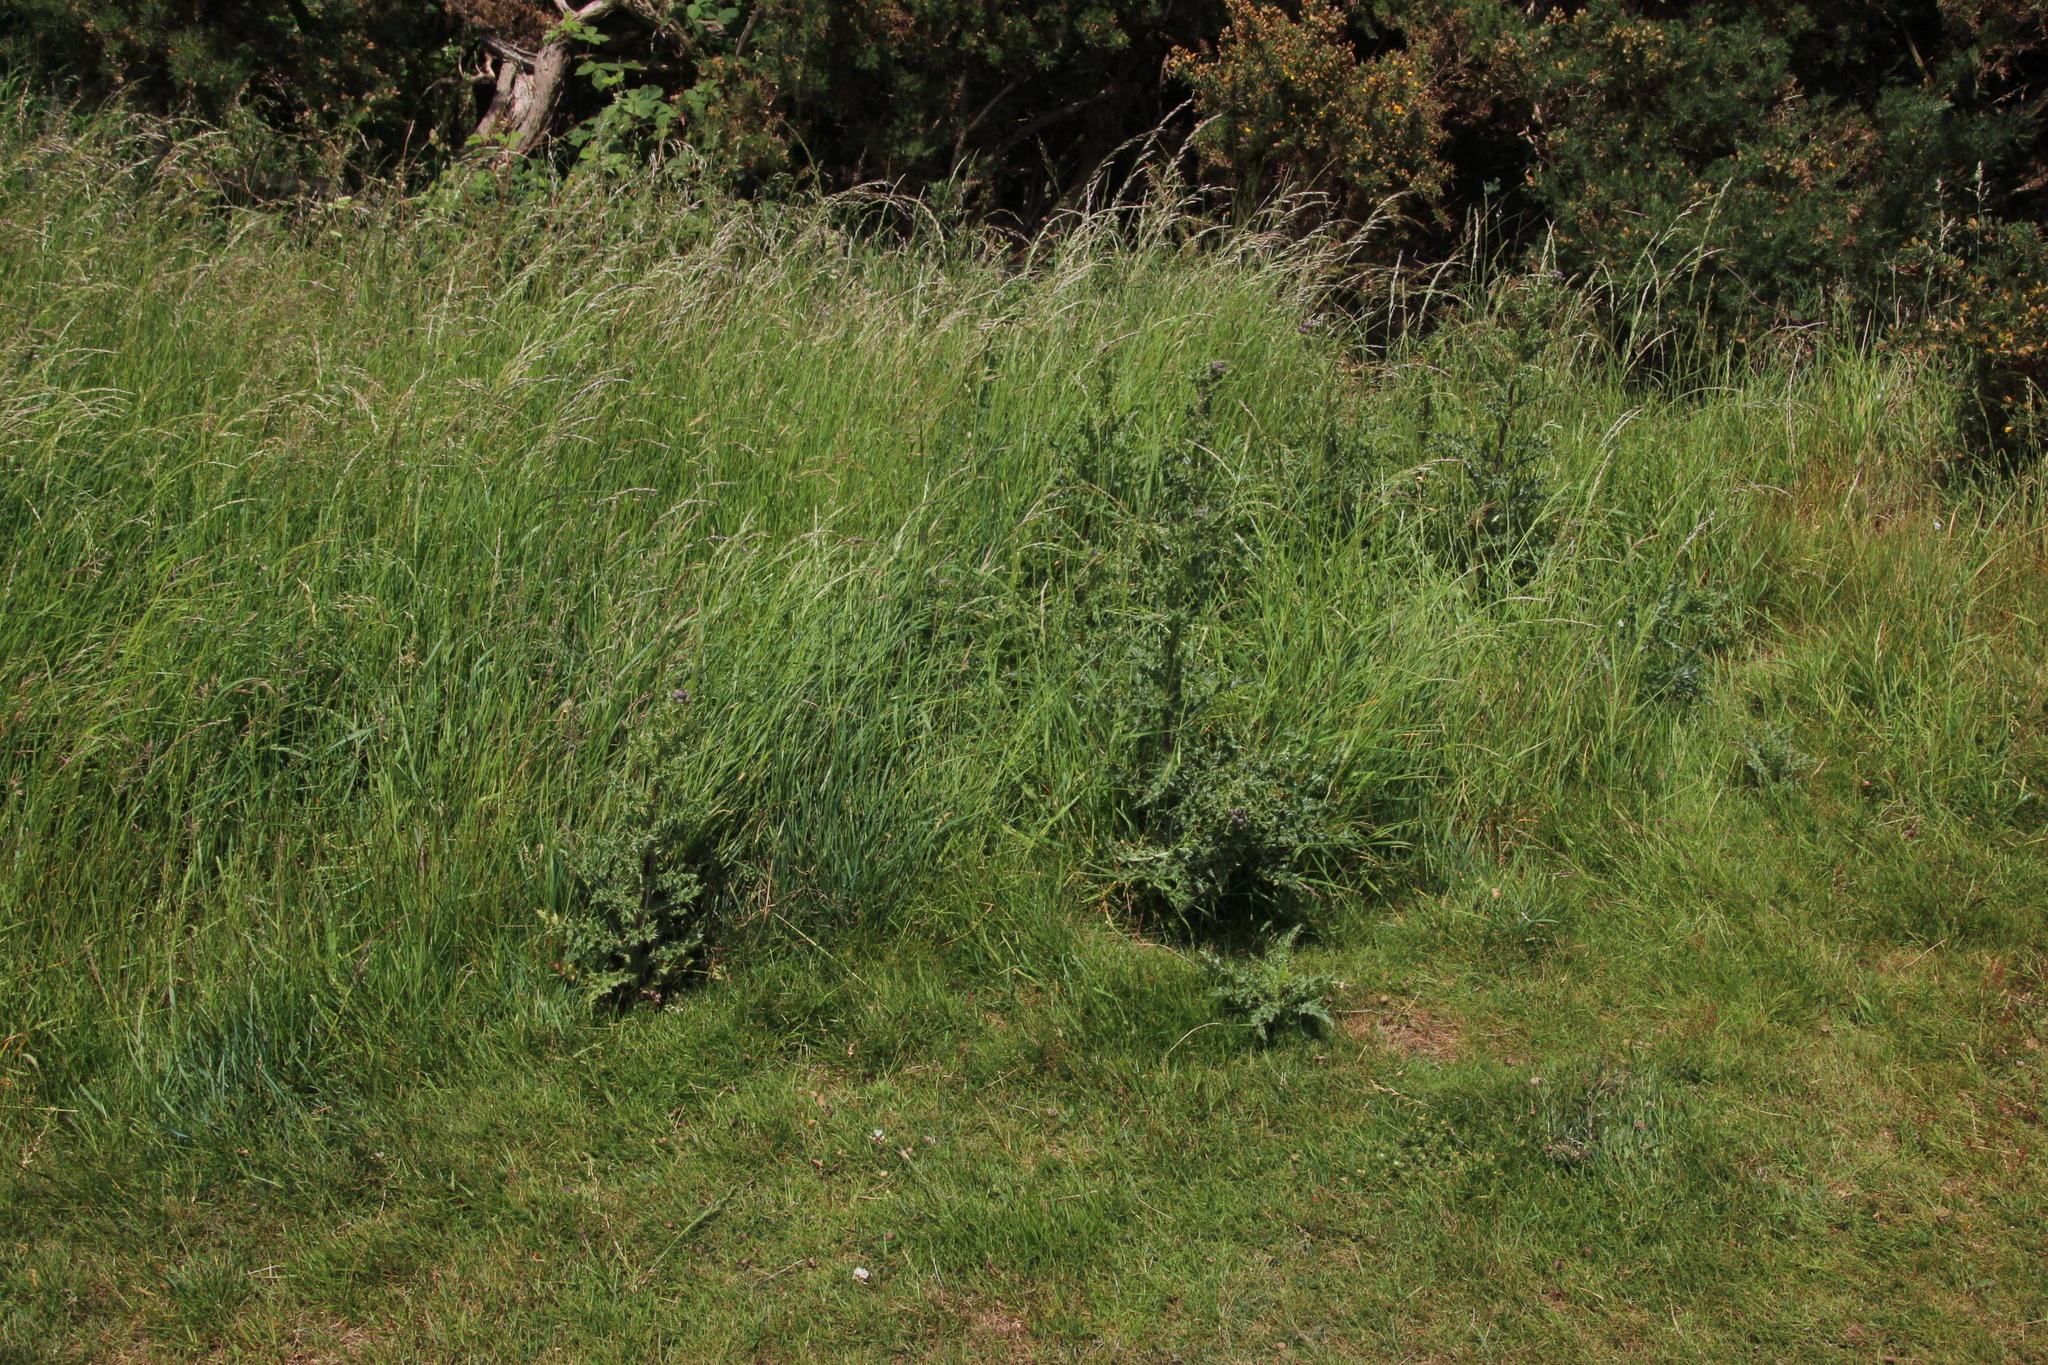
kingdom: Plantae
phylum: Tracheophyta
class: Magnoliopsida
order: Asterales
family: Asteraceae
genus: Cirsium
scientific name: Cirsium arvense
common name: Creeping thistle
